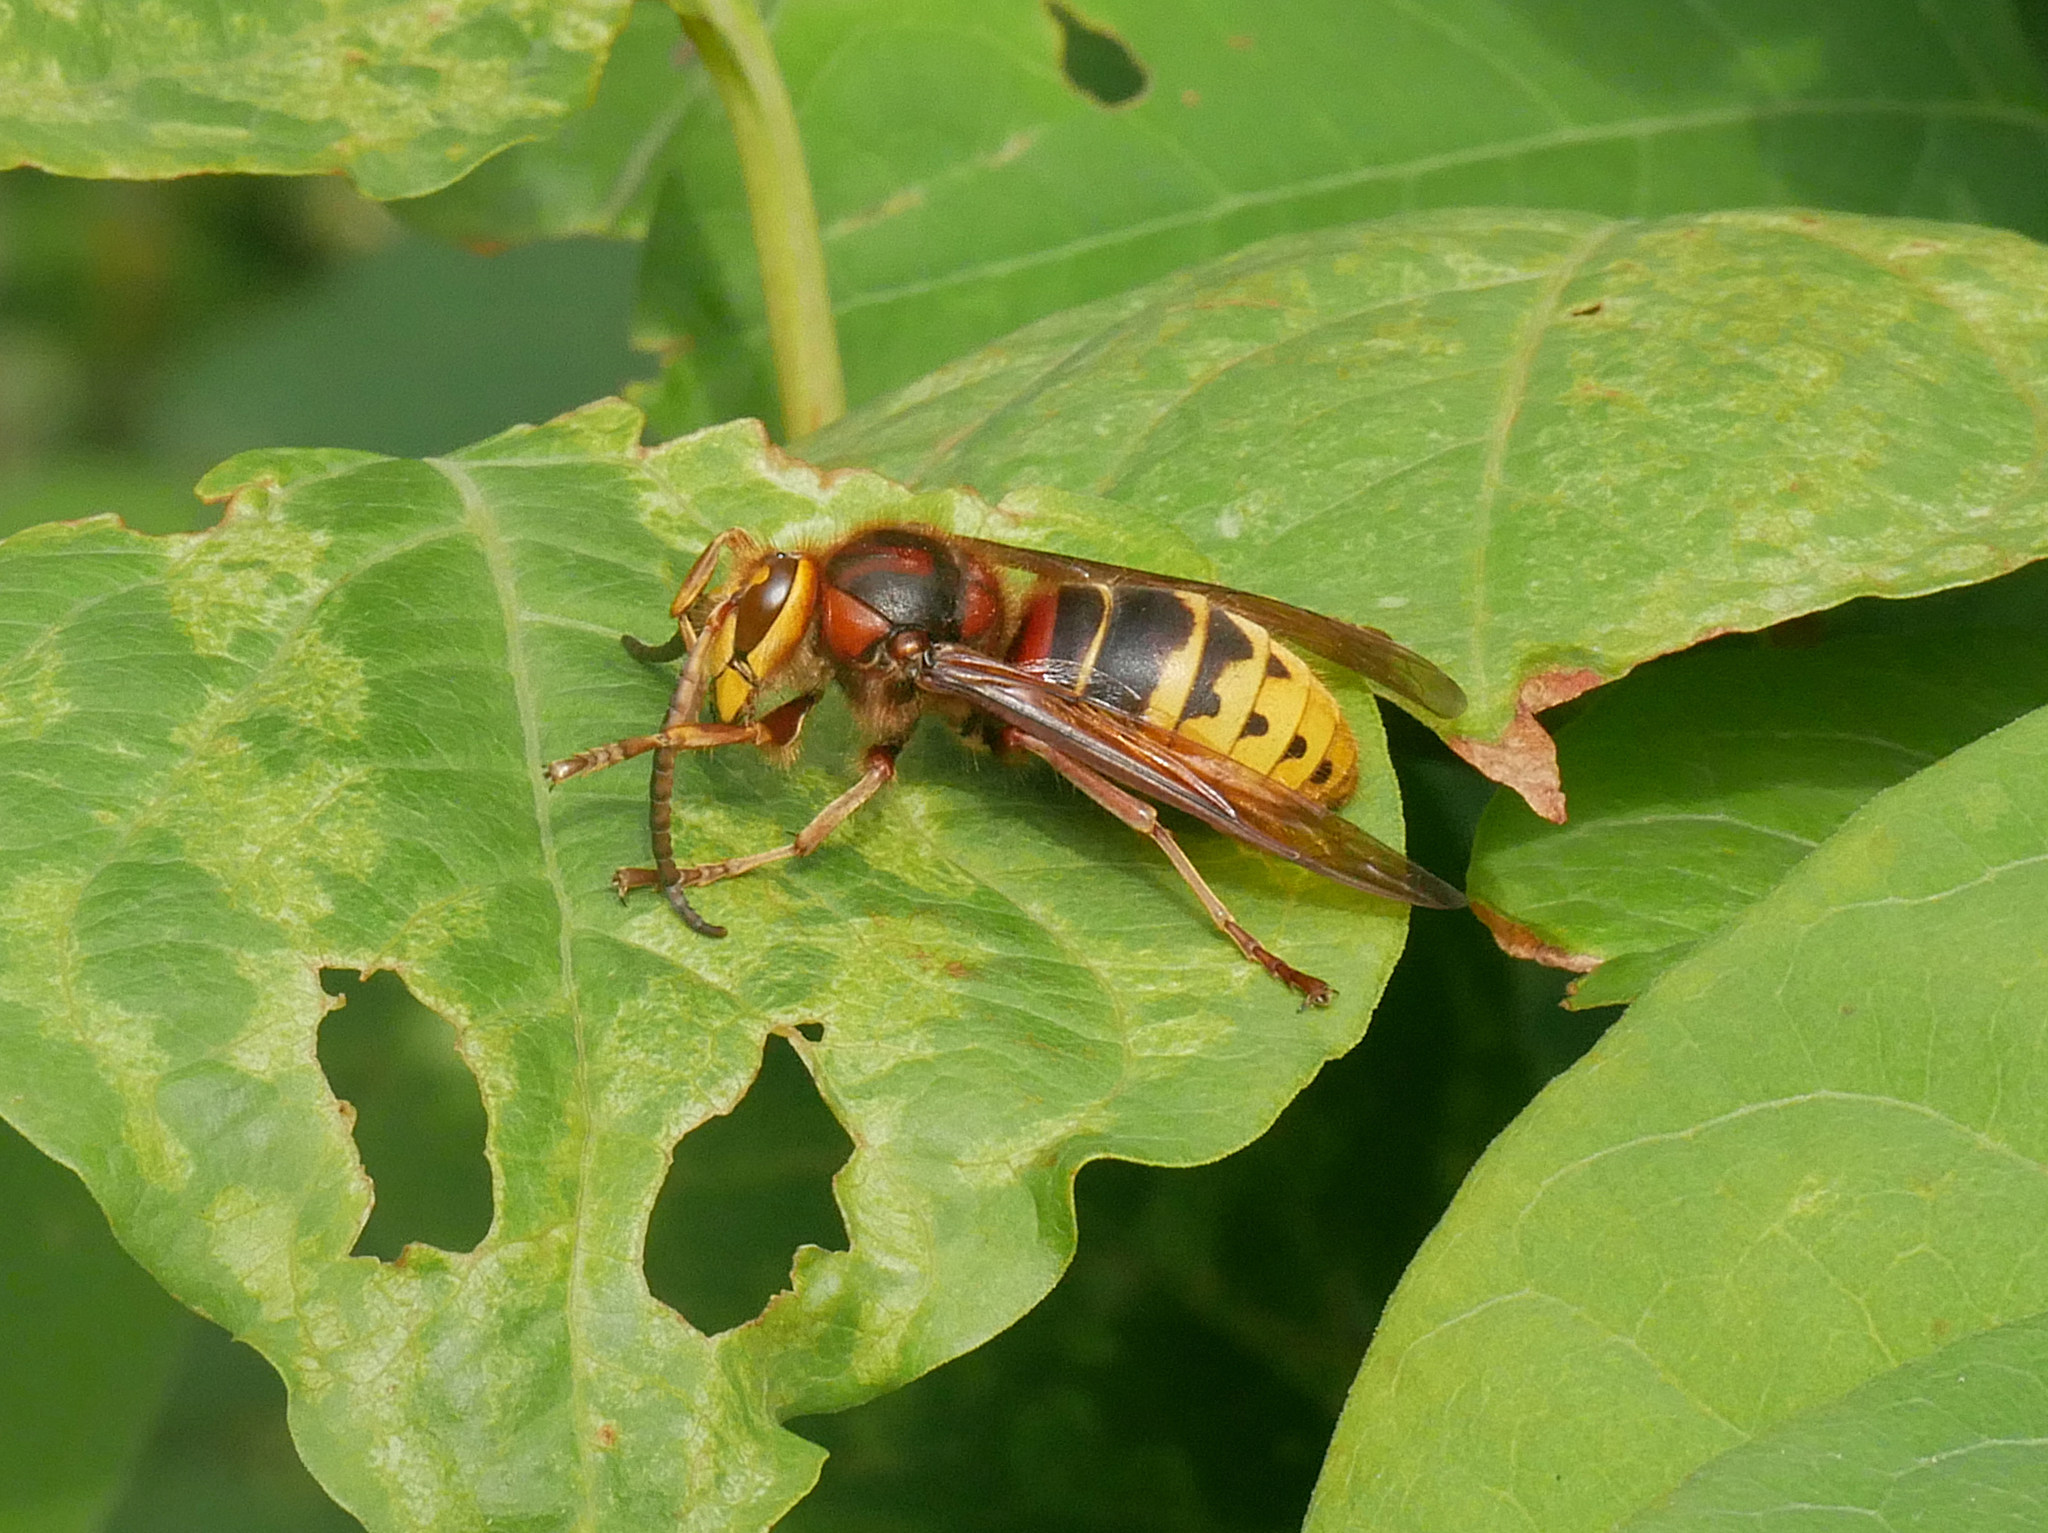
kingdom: Animalia
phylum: Arthropoda
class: Insecta
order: Hymenoptera
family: Vespidae
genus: Vespa
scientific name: Vespa crabro
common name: Hornet
